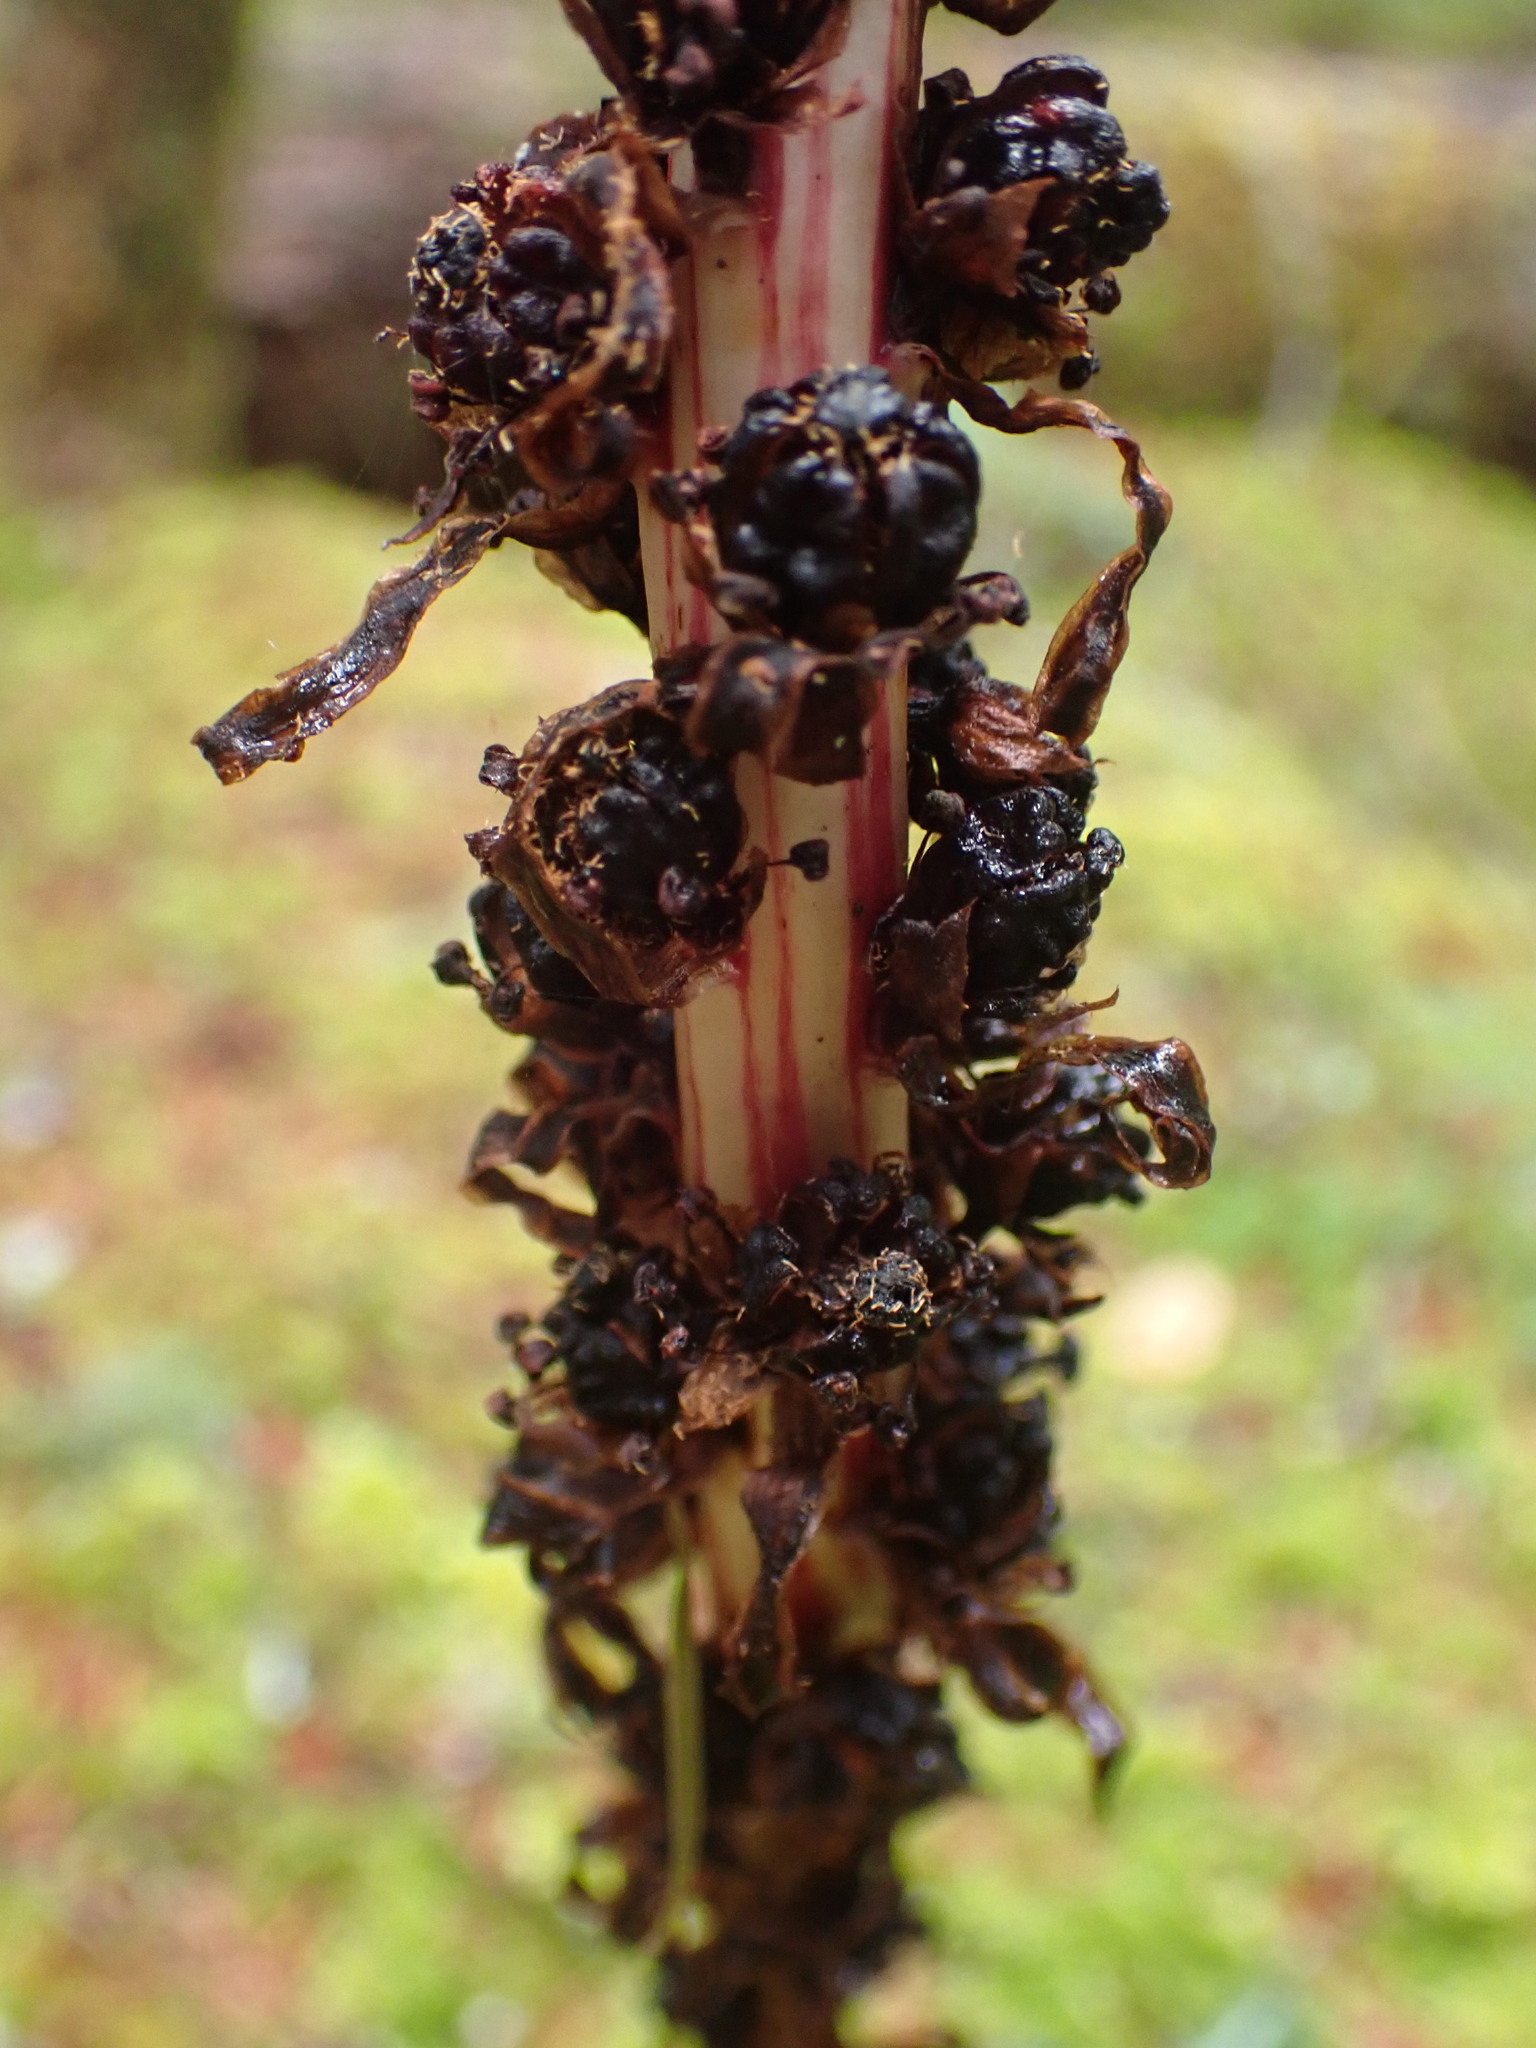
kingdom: Plantae
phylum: Tracheophyta
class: Magnoliopsida
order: Ericales
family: Ericaceae
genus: Allotropa
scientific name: Allotropa virgata
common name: Candy-striped allotropa
